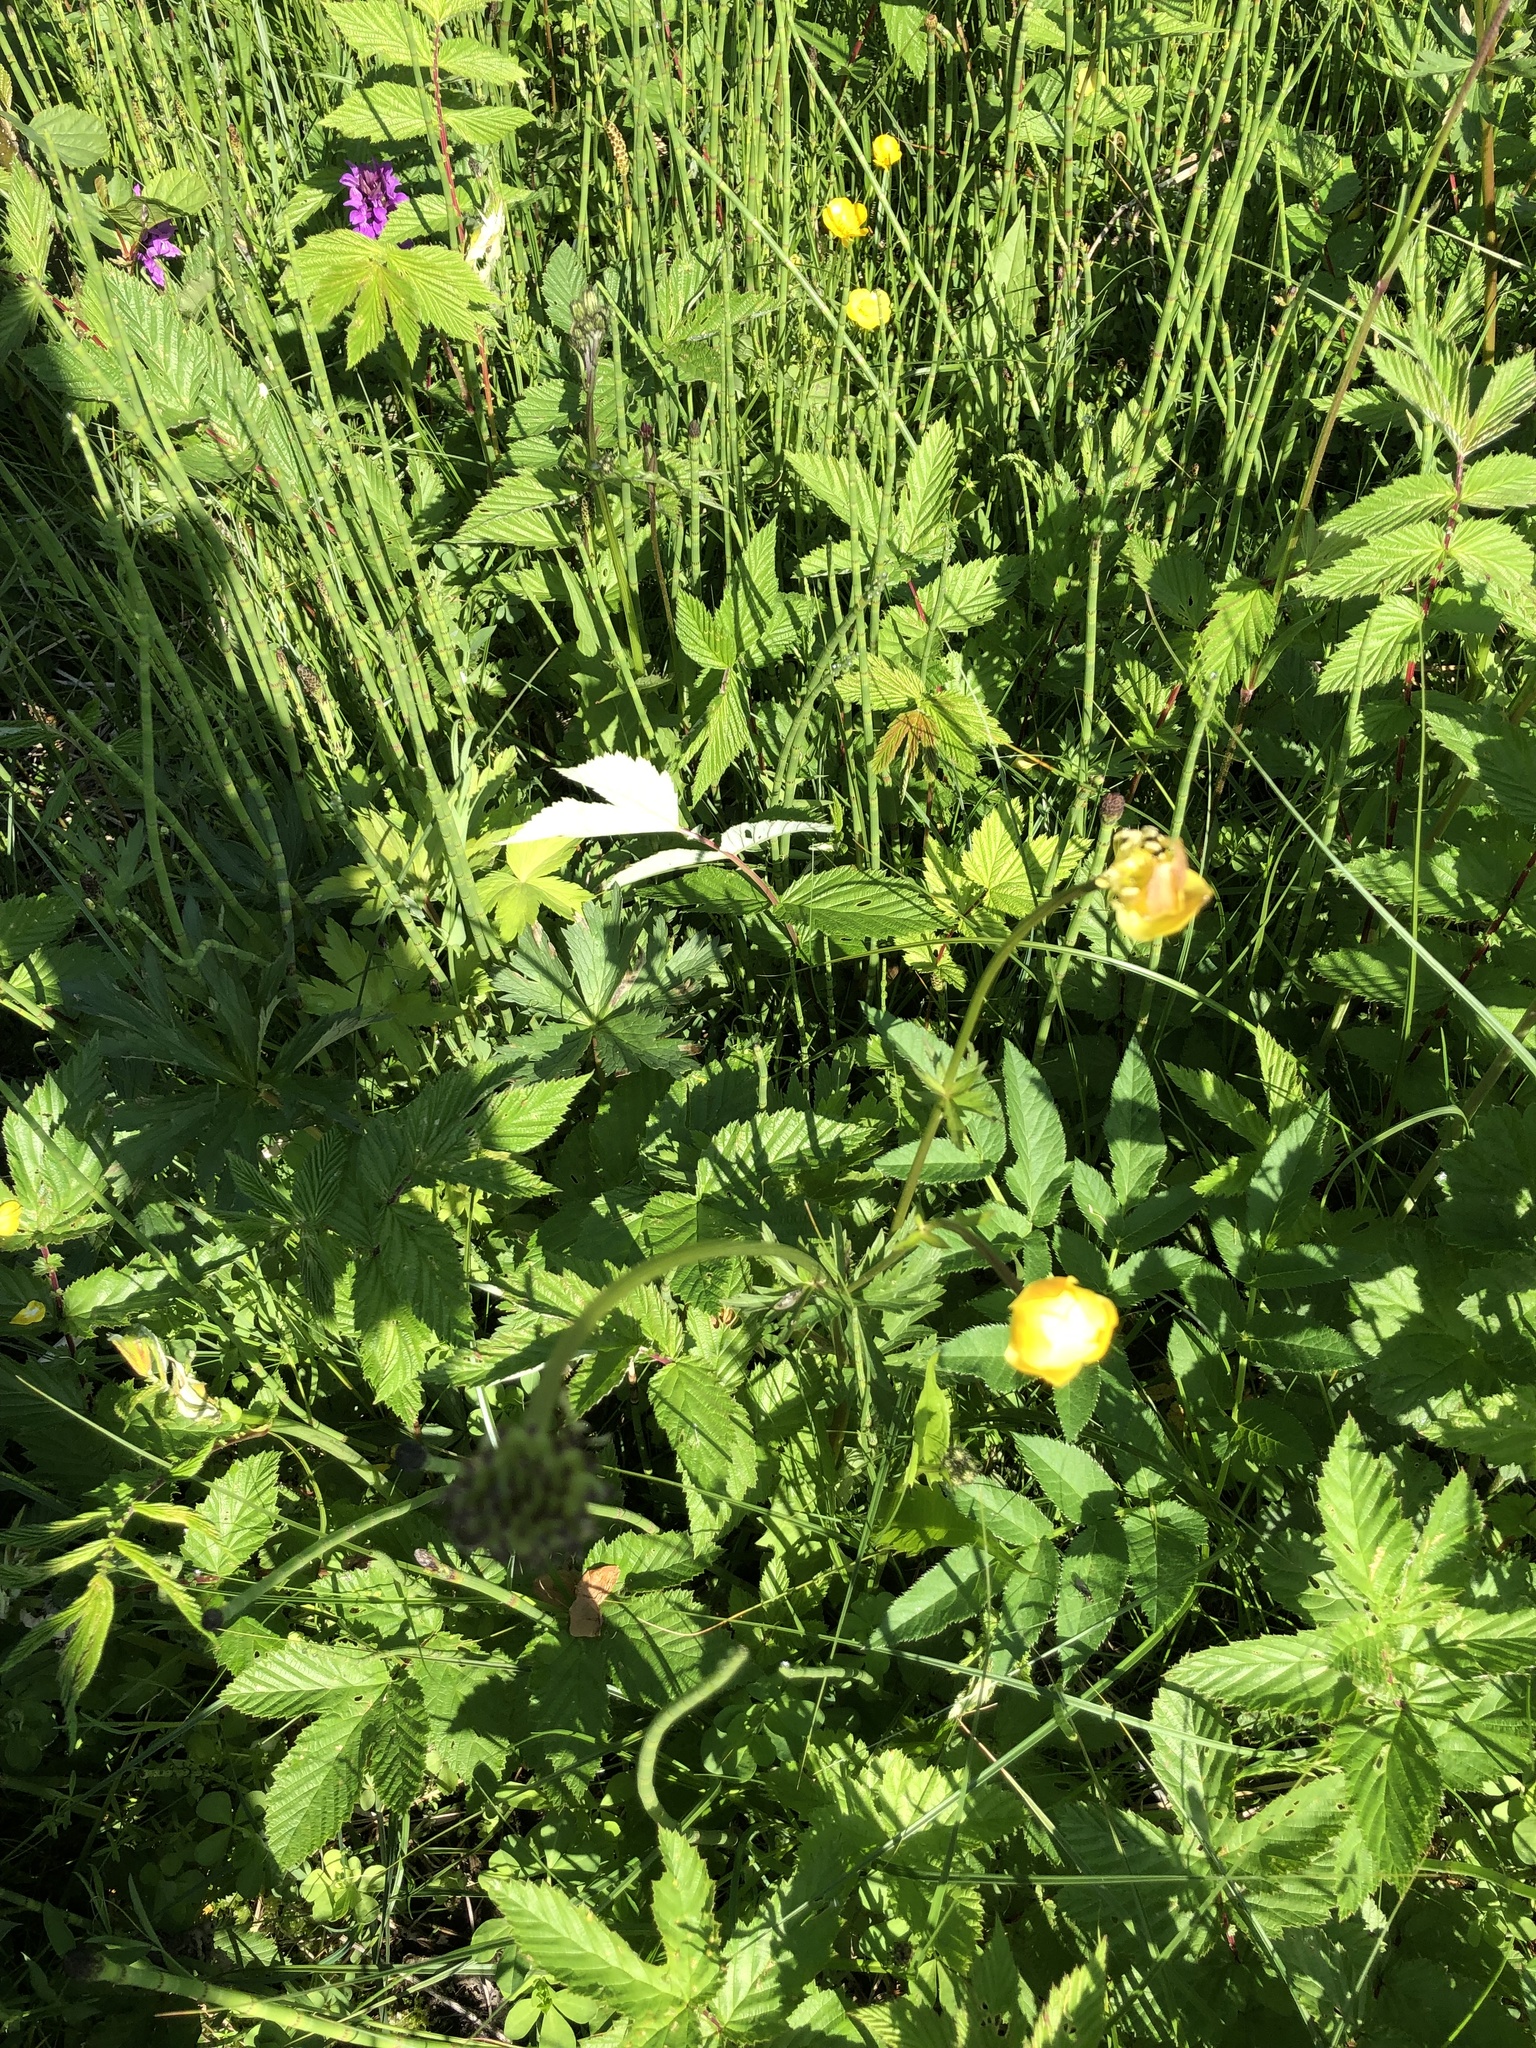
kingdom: Plantae
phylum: Tracheophyta
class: Magnoliopsida
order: Ranunculales
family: Ranunculaceae
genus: Trollius
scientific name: Trollius europaeus
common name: European globeflower
